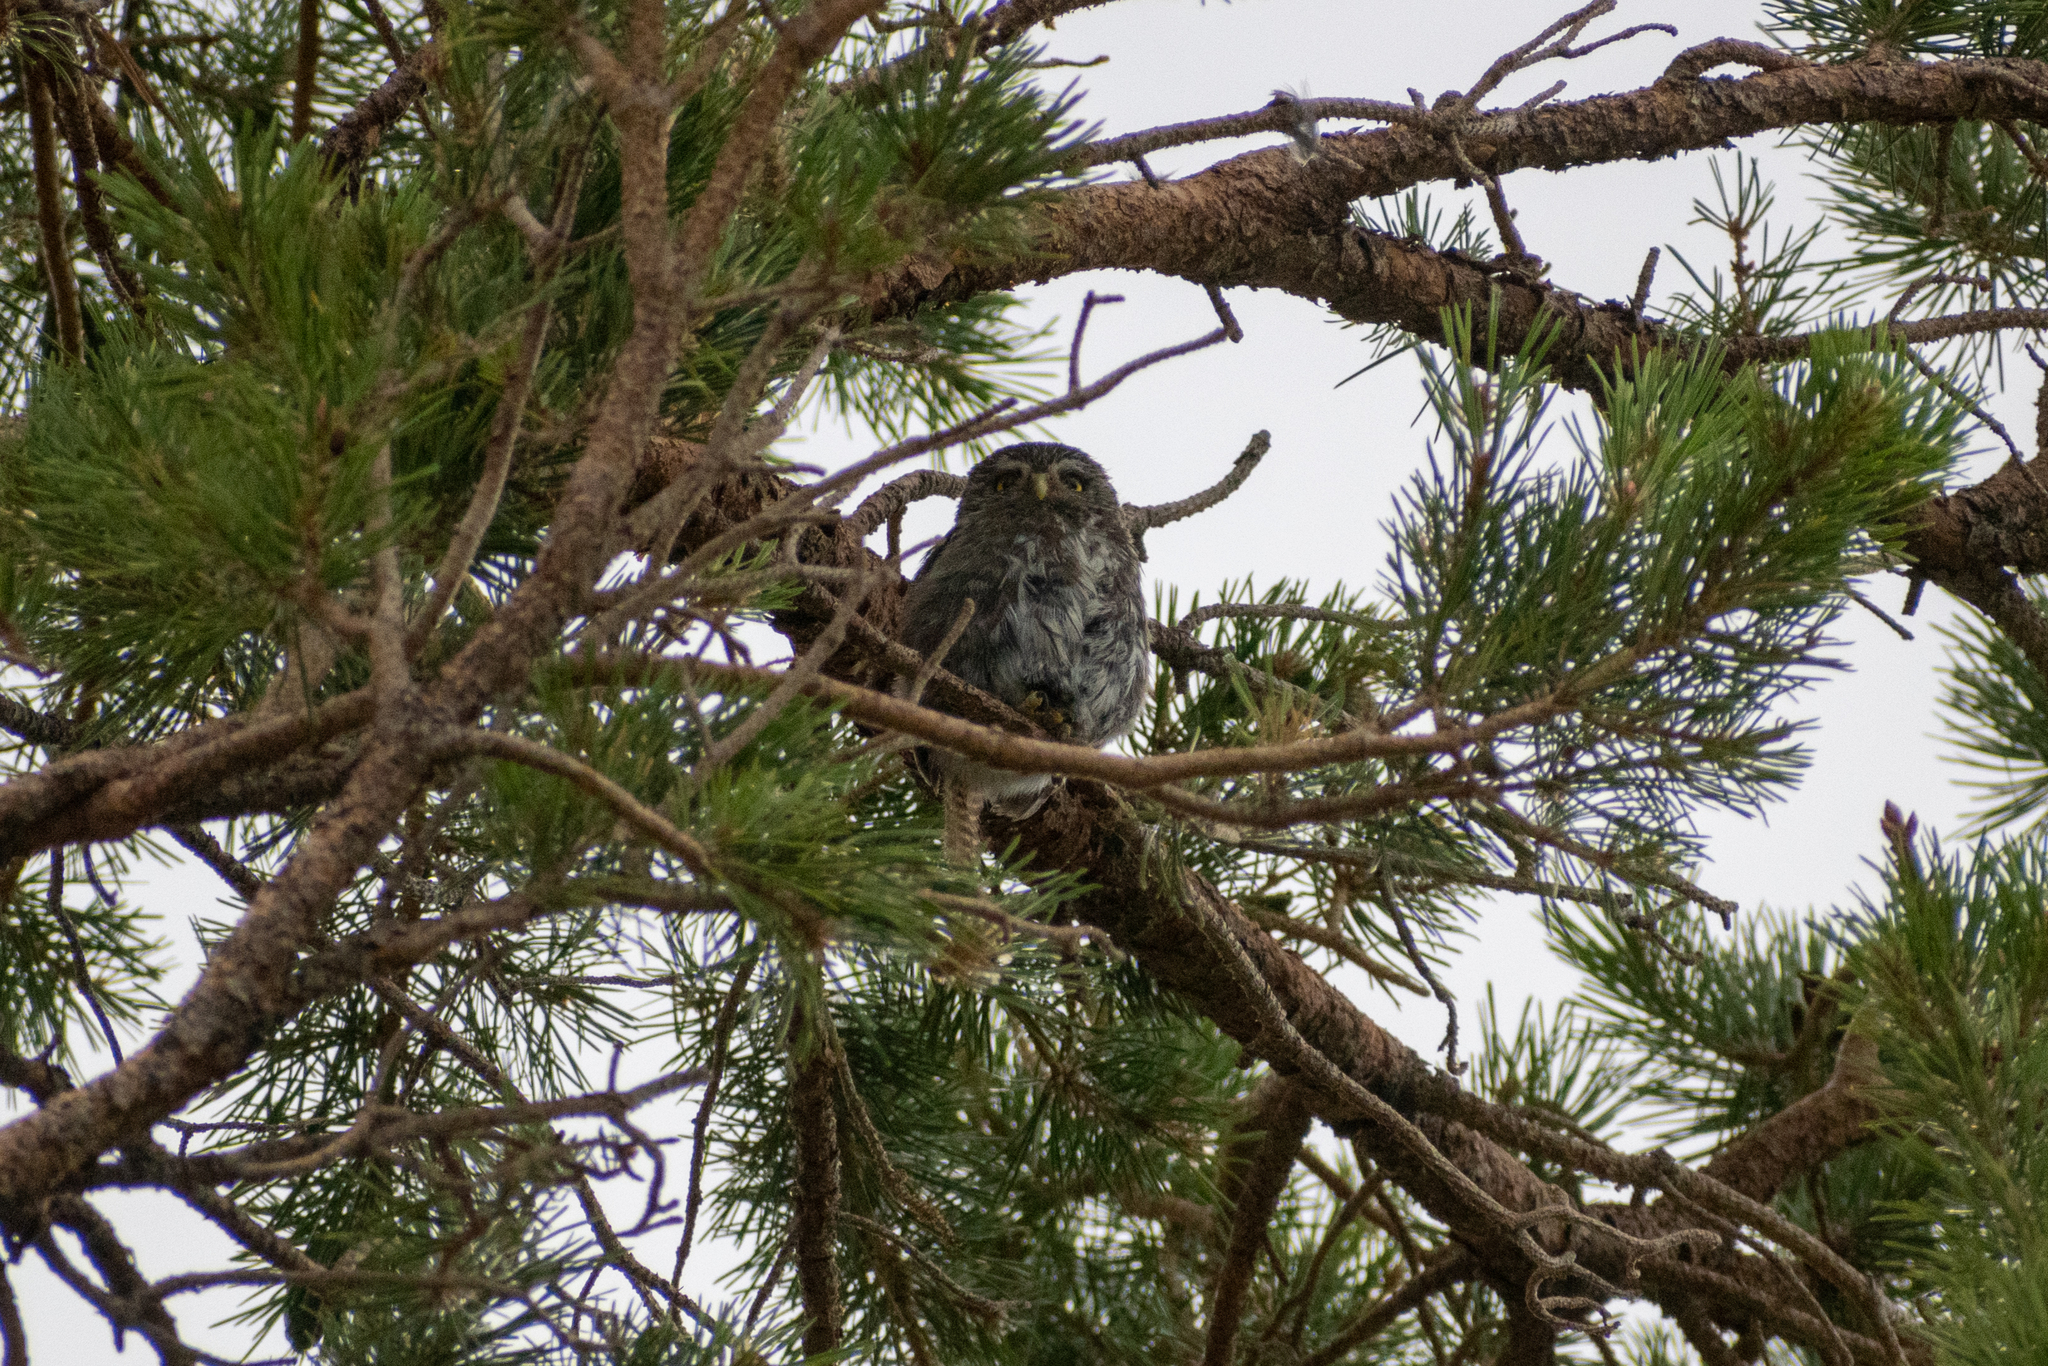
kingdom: Animalia
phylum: Chordata
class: Aves
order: Strigiformes
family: Strigidae
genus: Glaucidium
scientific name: Glaucidium nana
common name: Austral pygmy-owl
